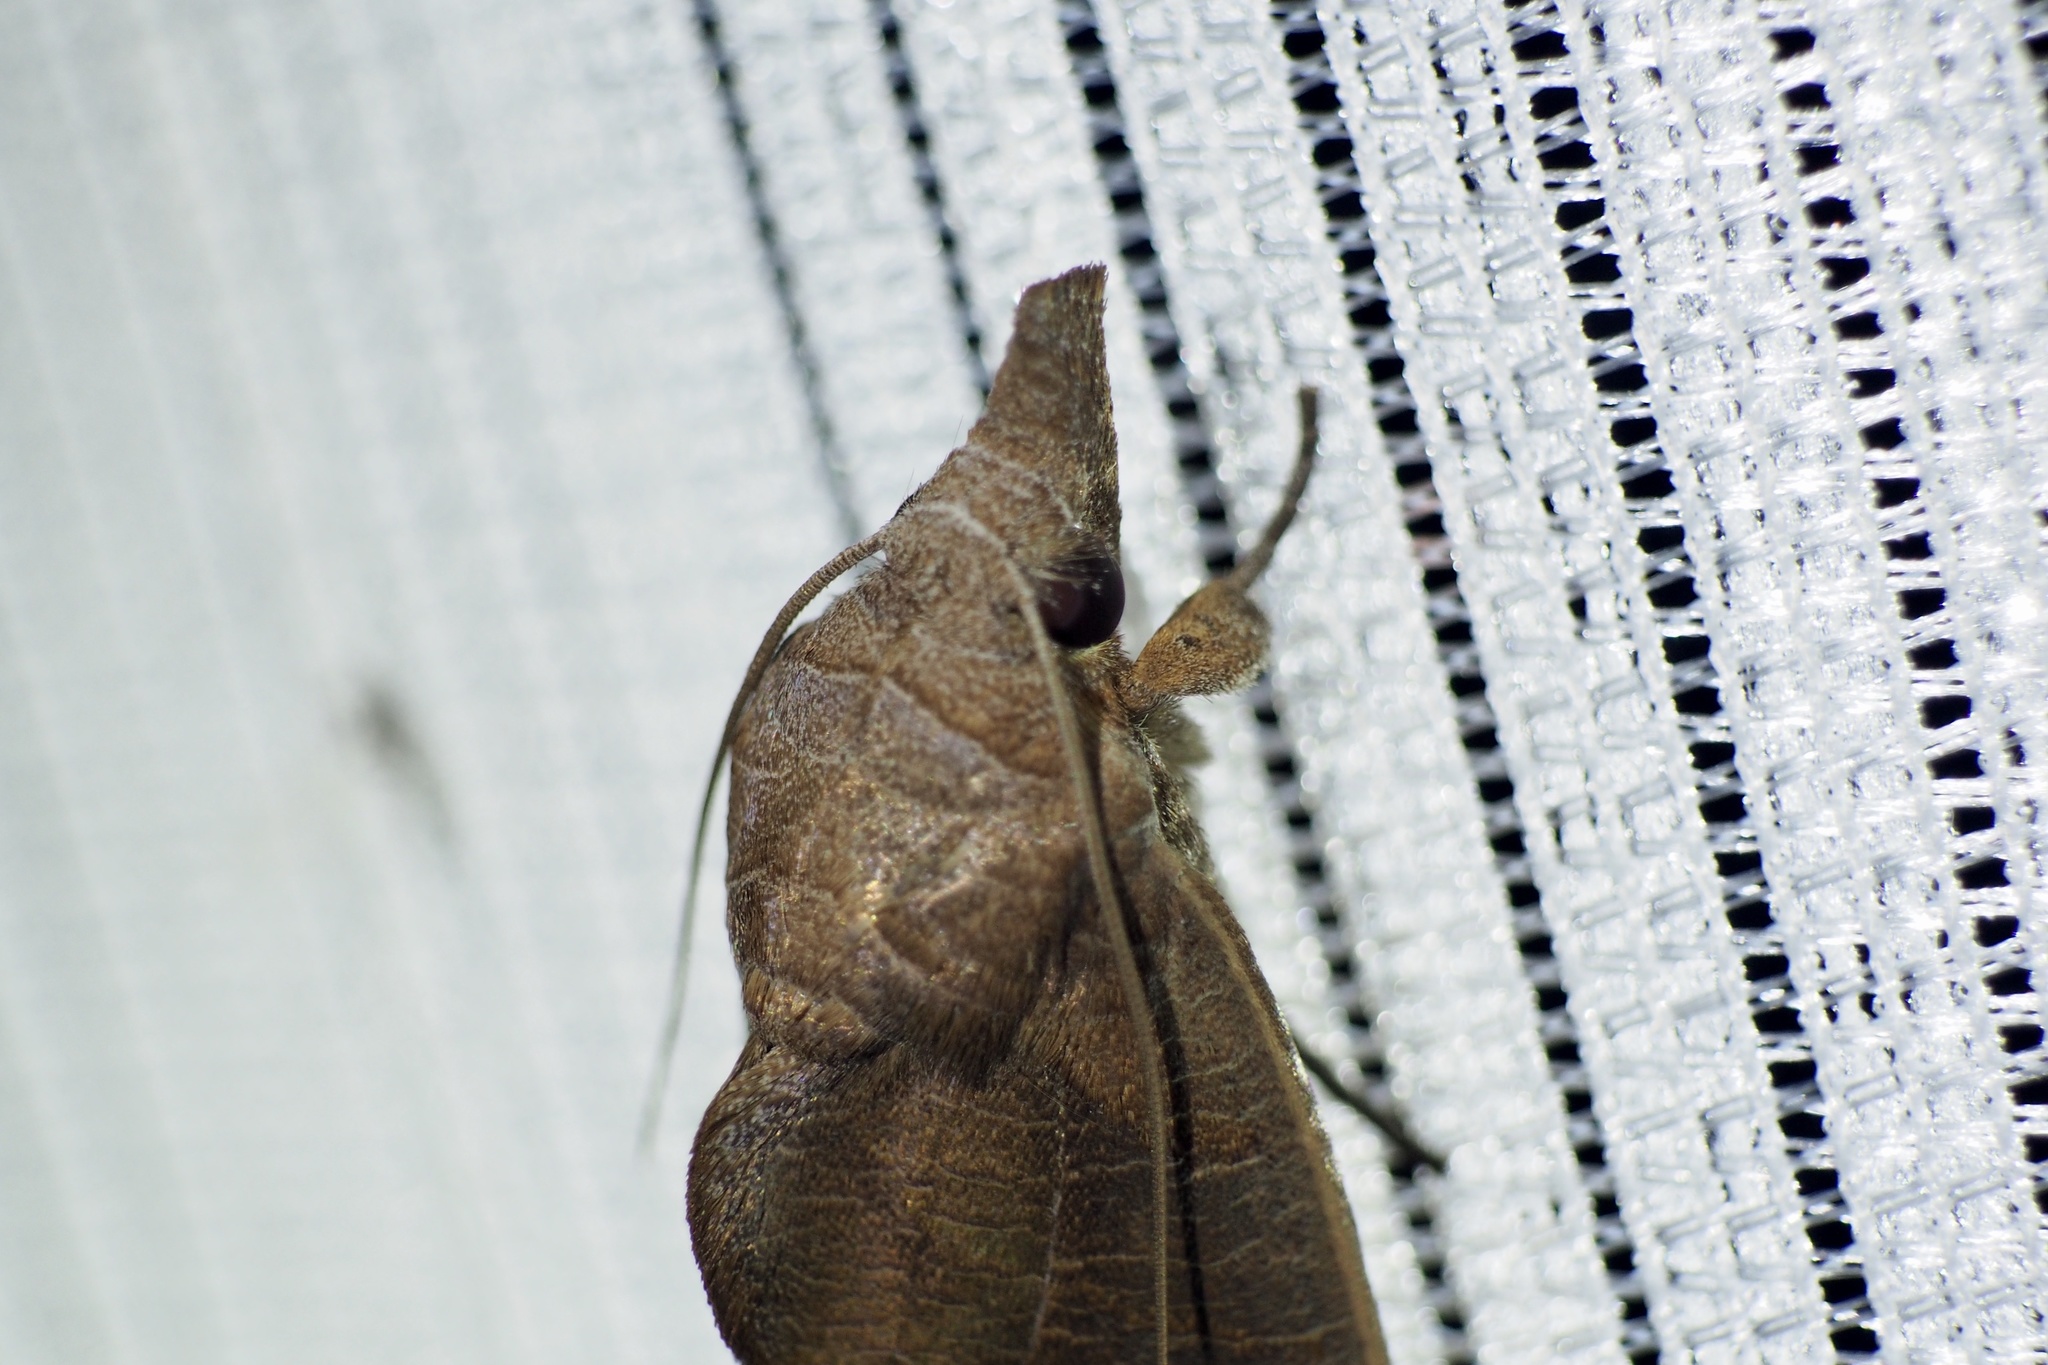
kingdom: Animalia
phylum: Arthropoda
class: Insecta
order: Lepidoptera
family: Erebidae
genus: Calyptra
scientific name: Calyptra gruesa
